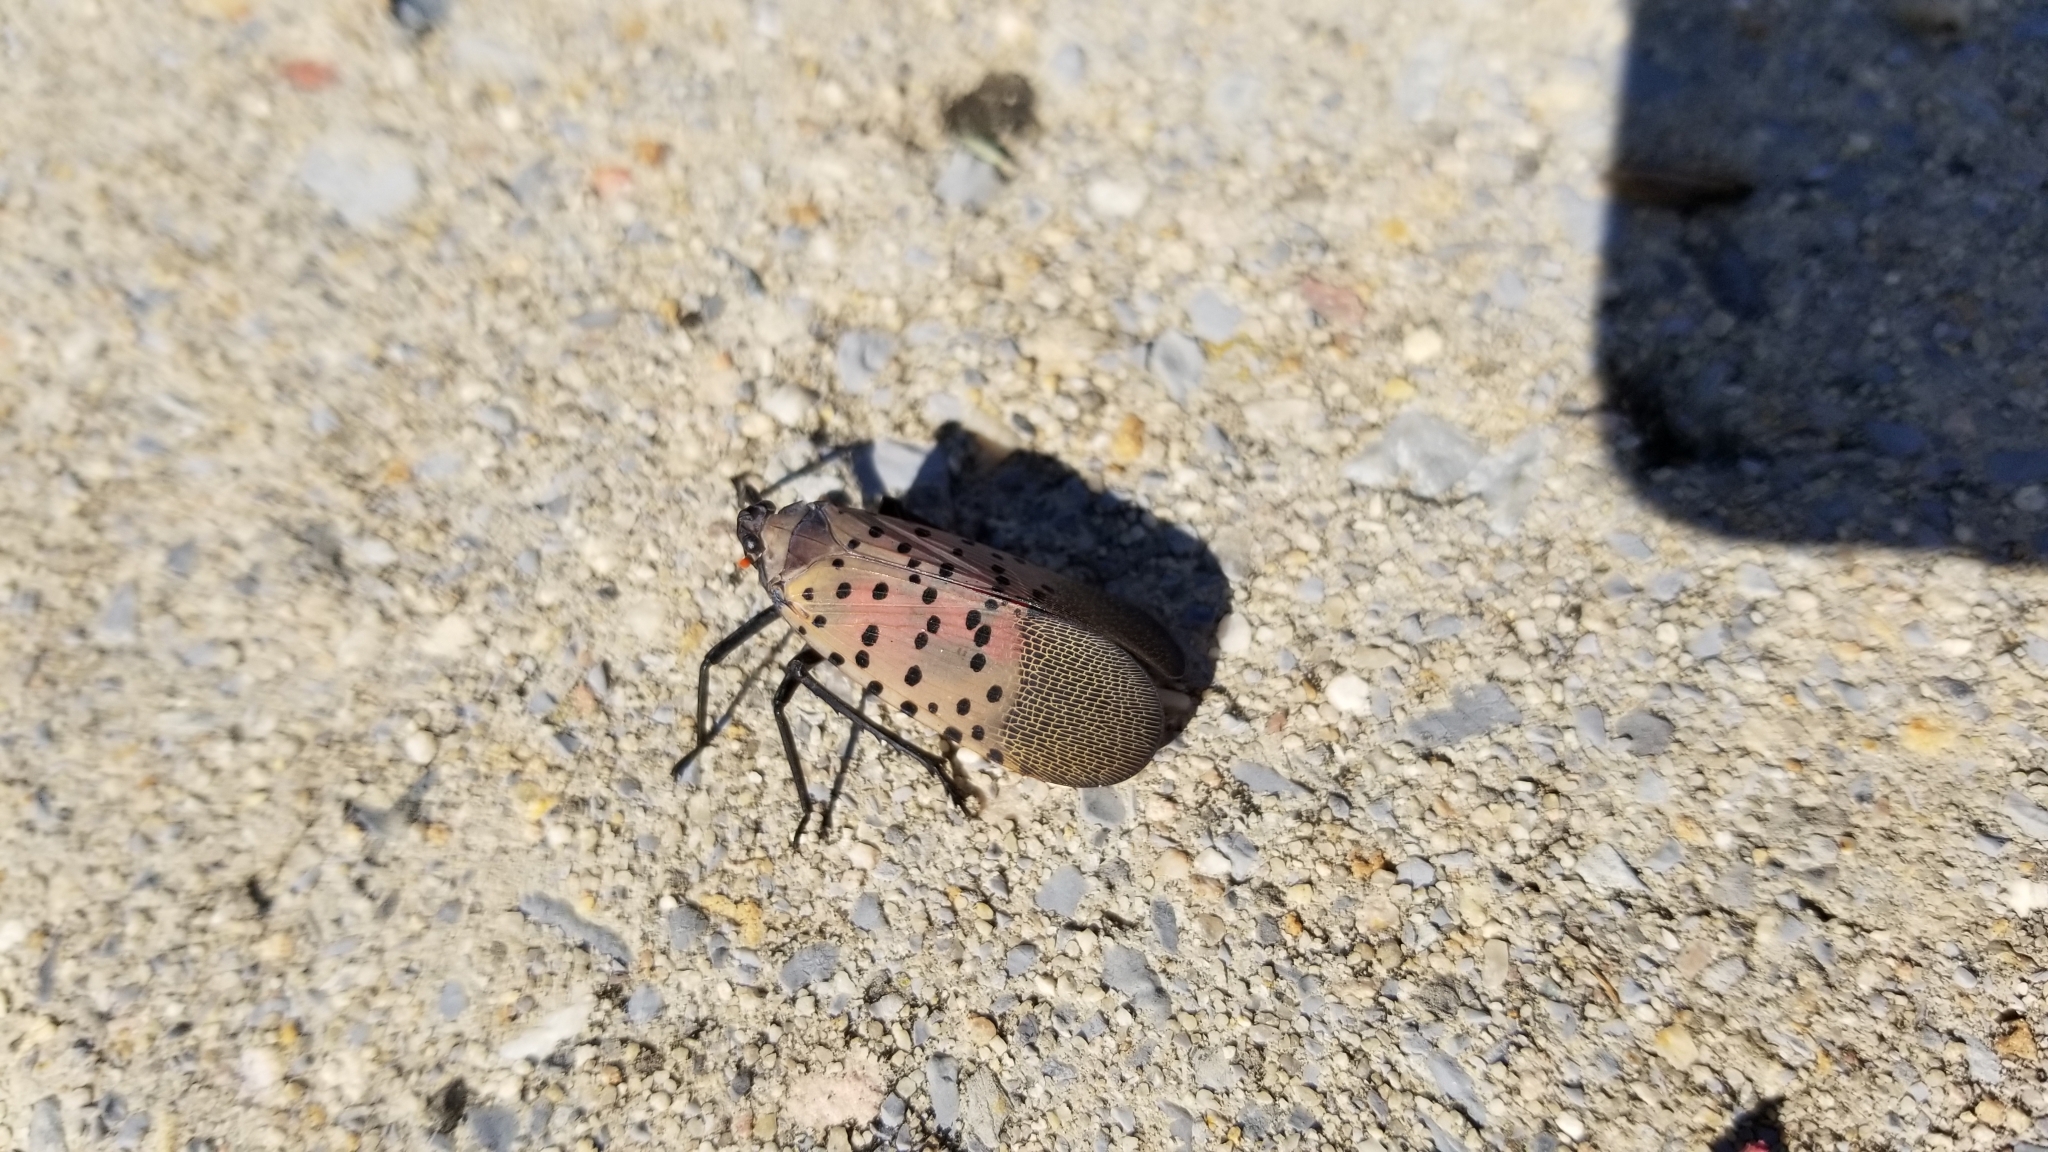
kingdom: Animalia
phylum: Arthropoda
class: Insecta
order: Hemiptera
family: Fulgoridae
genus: Lycorma
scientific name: Lycorma delicatula
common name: Spotted lanternfly
